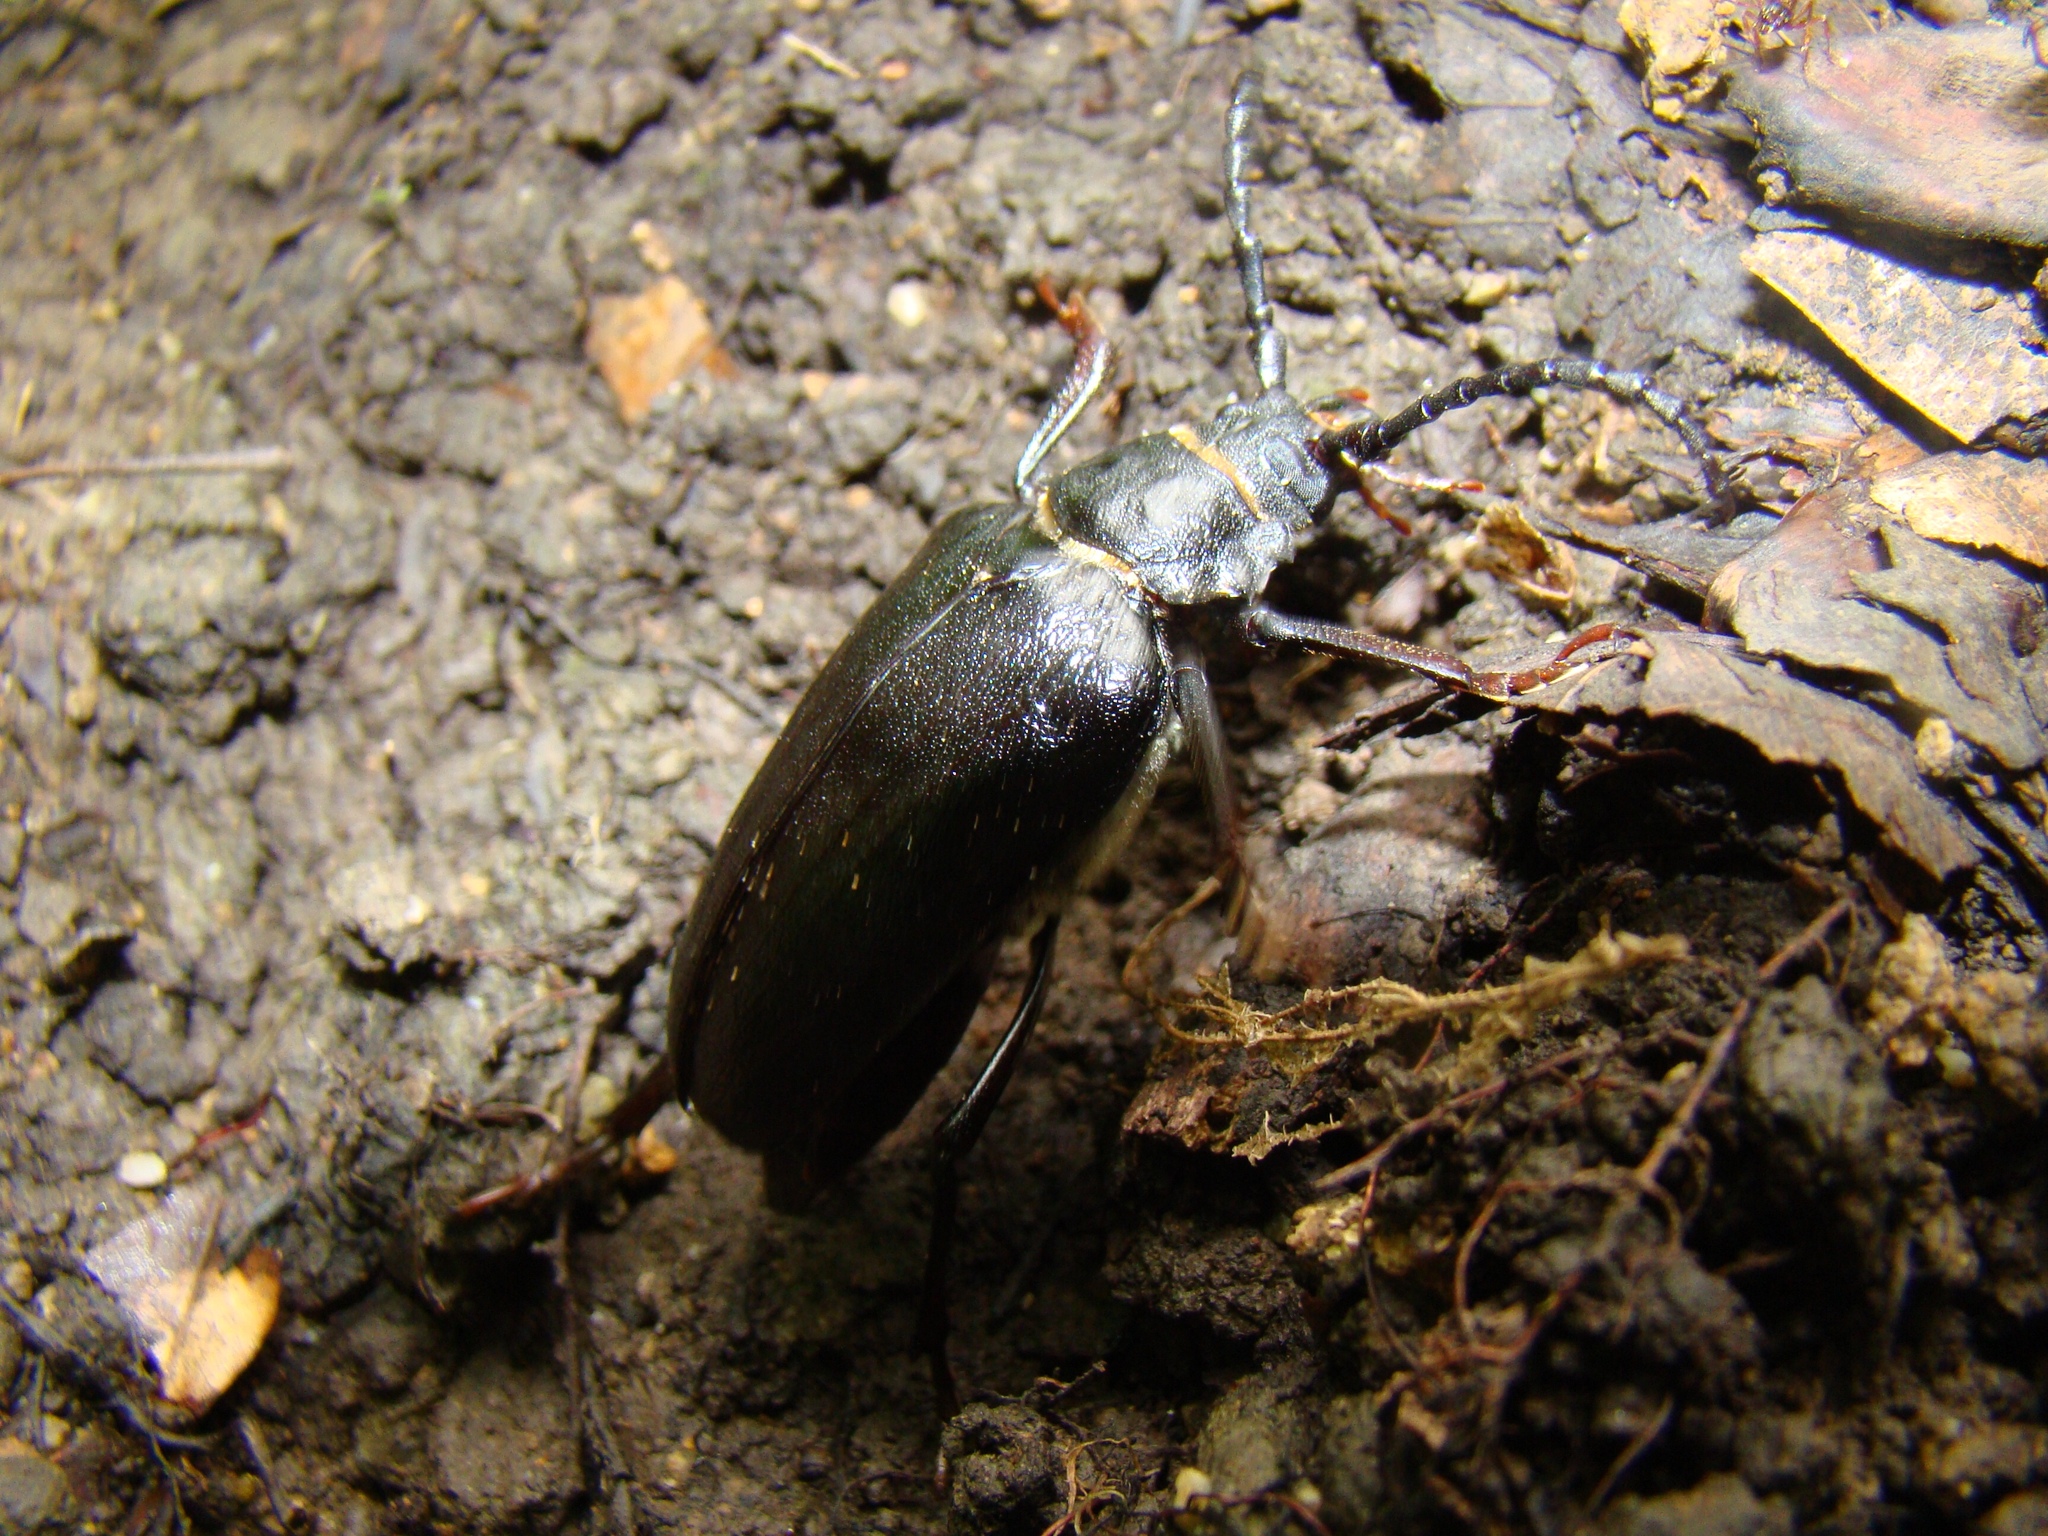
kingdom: Animalia
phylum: Arthropoda
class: Insecta
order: Coleoptera
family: Cerambycidae
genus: Prionus
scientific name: Prionus coriarius
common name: Tanner beetle
